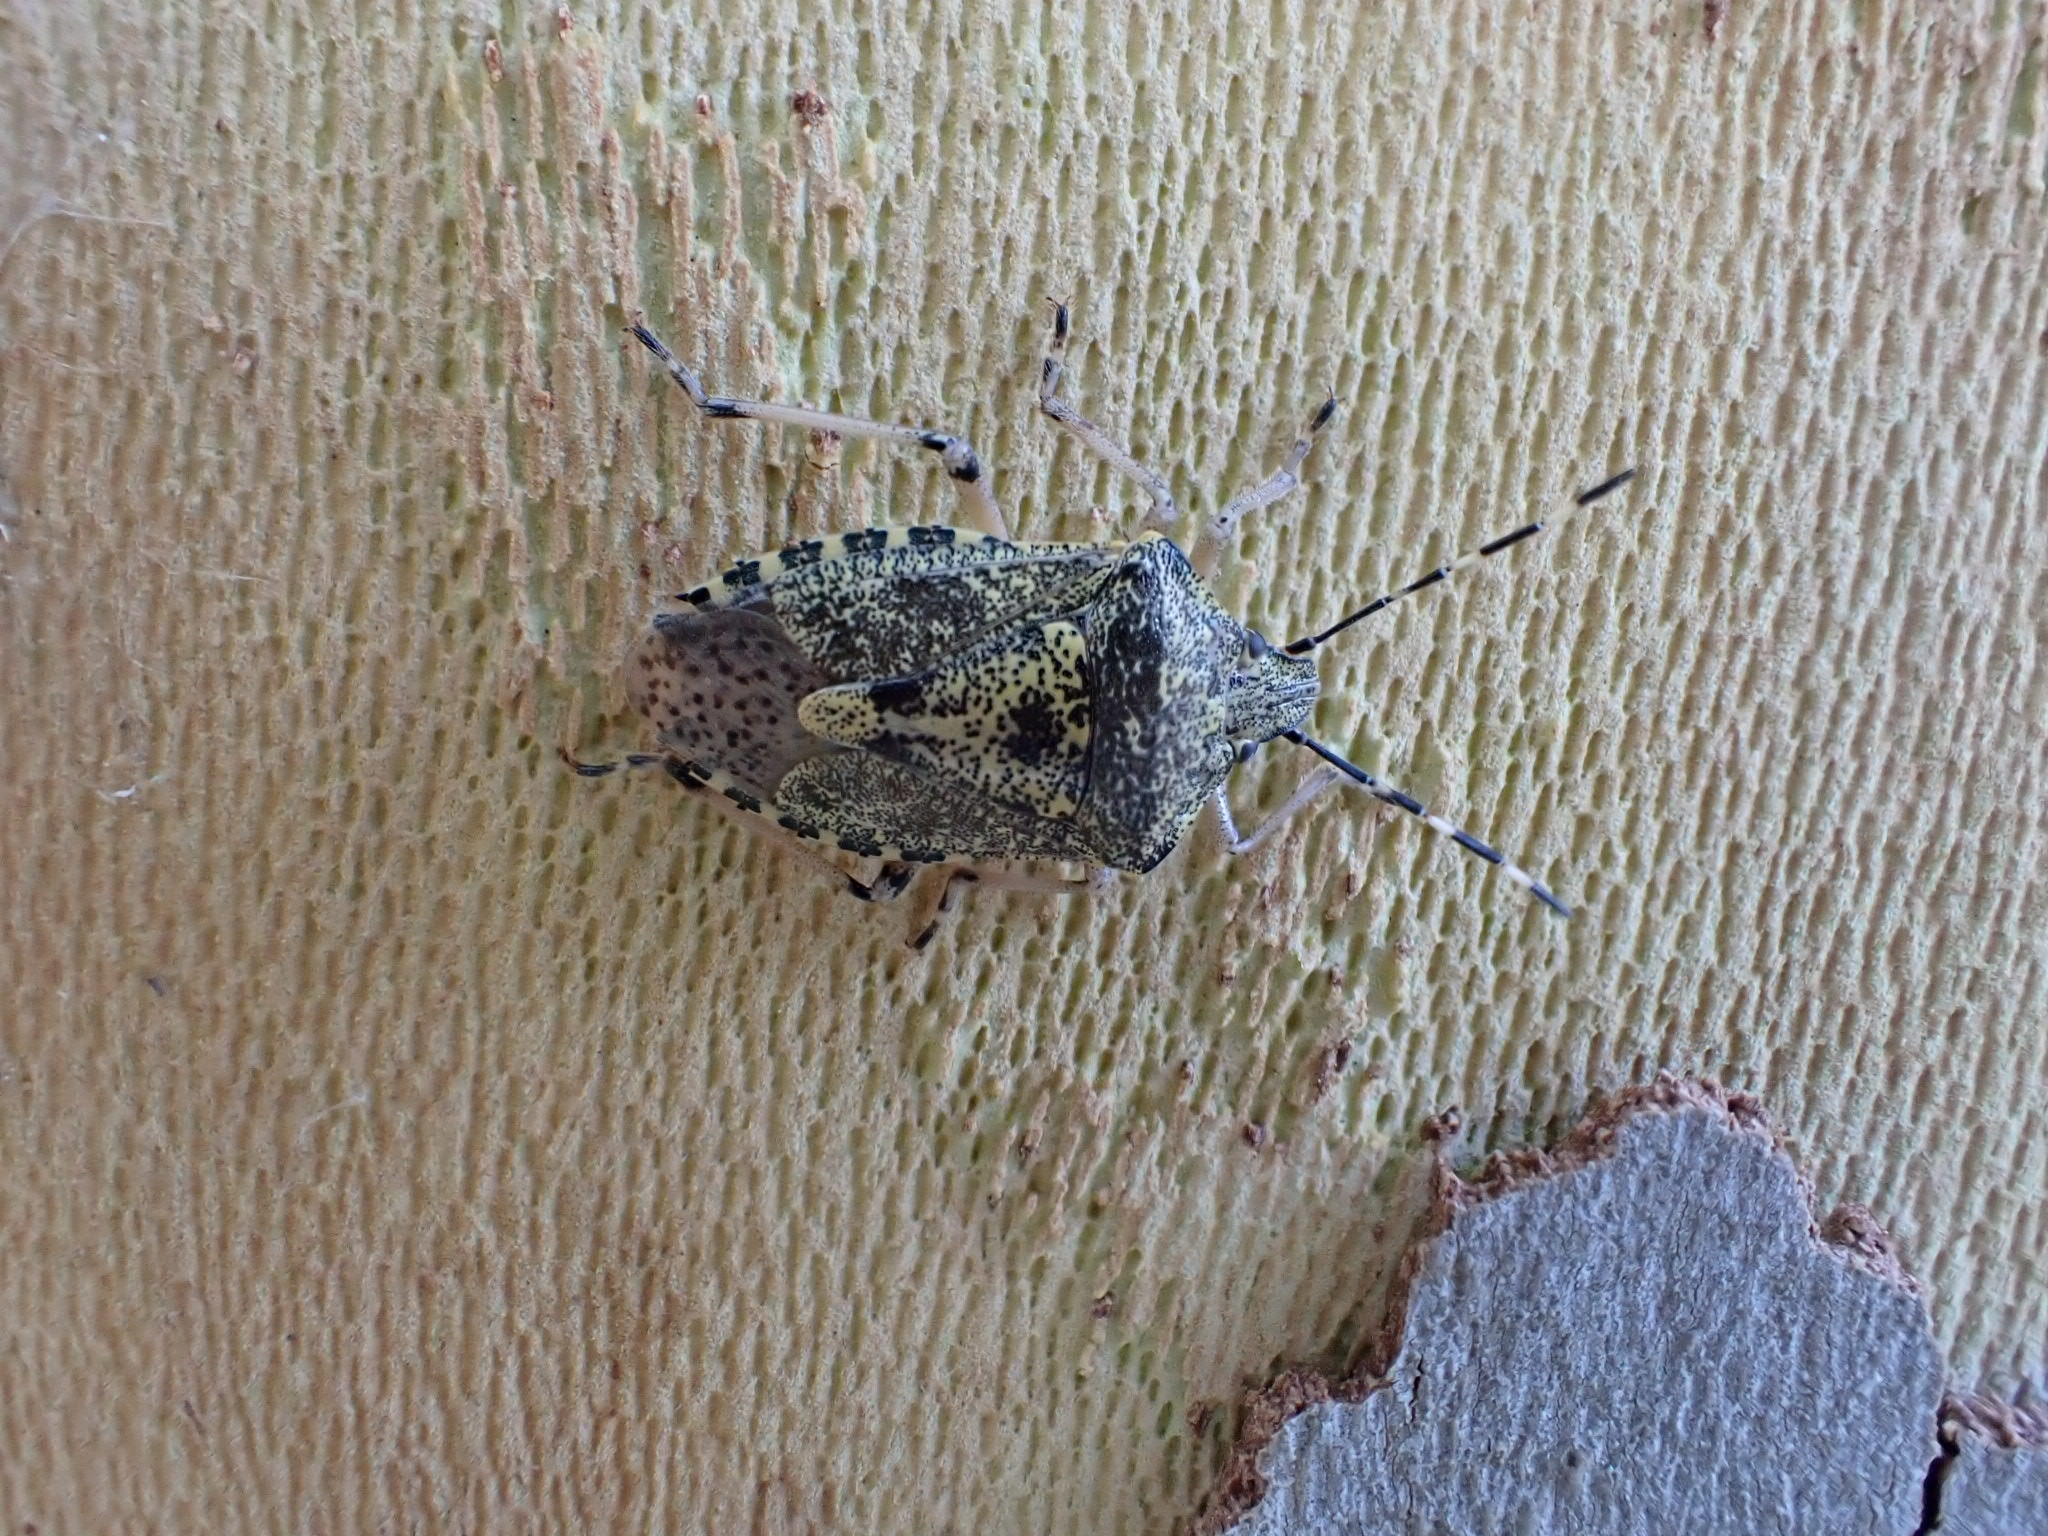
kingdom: Animalia
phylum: Arthropoda
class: Insecta
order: Hemiptera
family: Pentatomidae
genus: Rhaphigaster
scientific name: Rhaphigaster nebulosa
